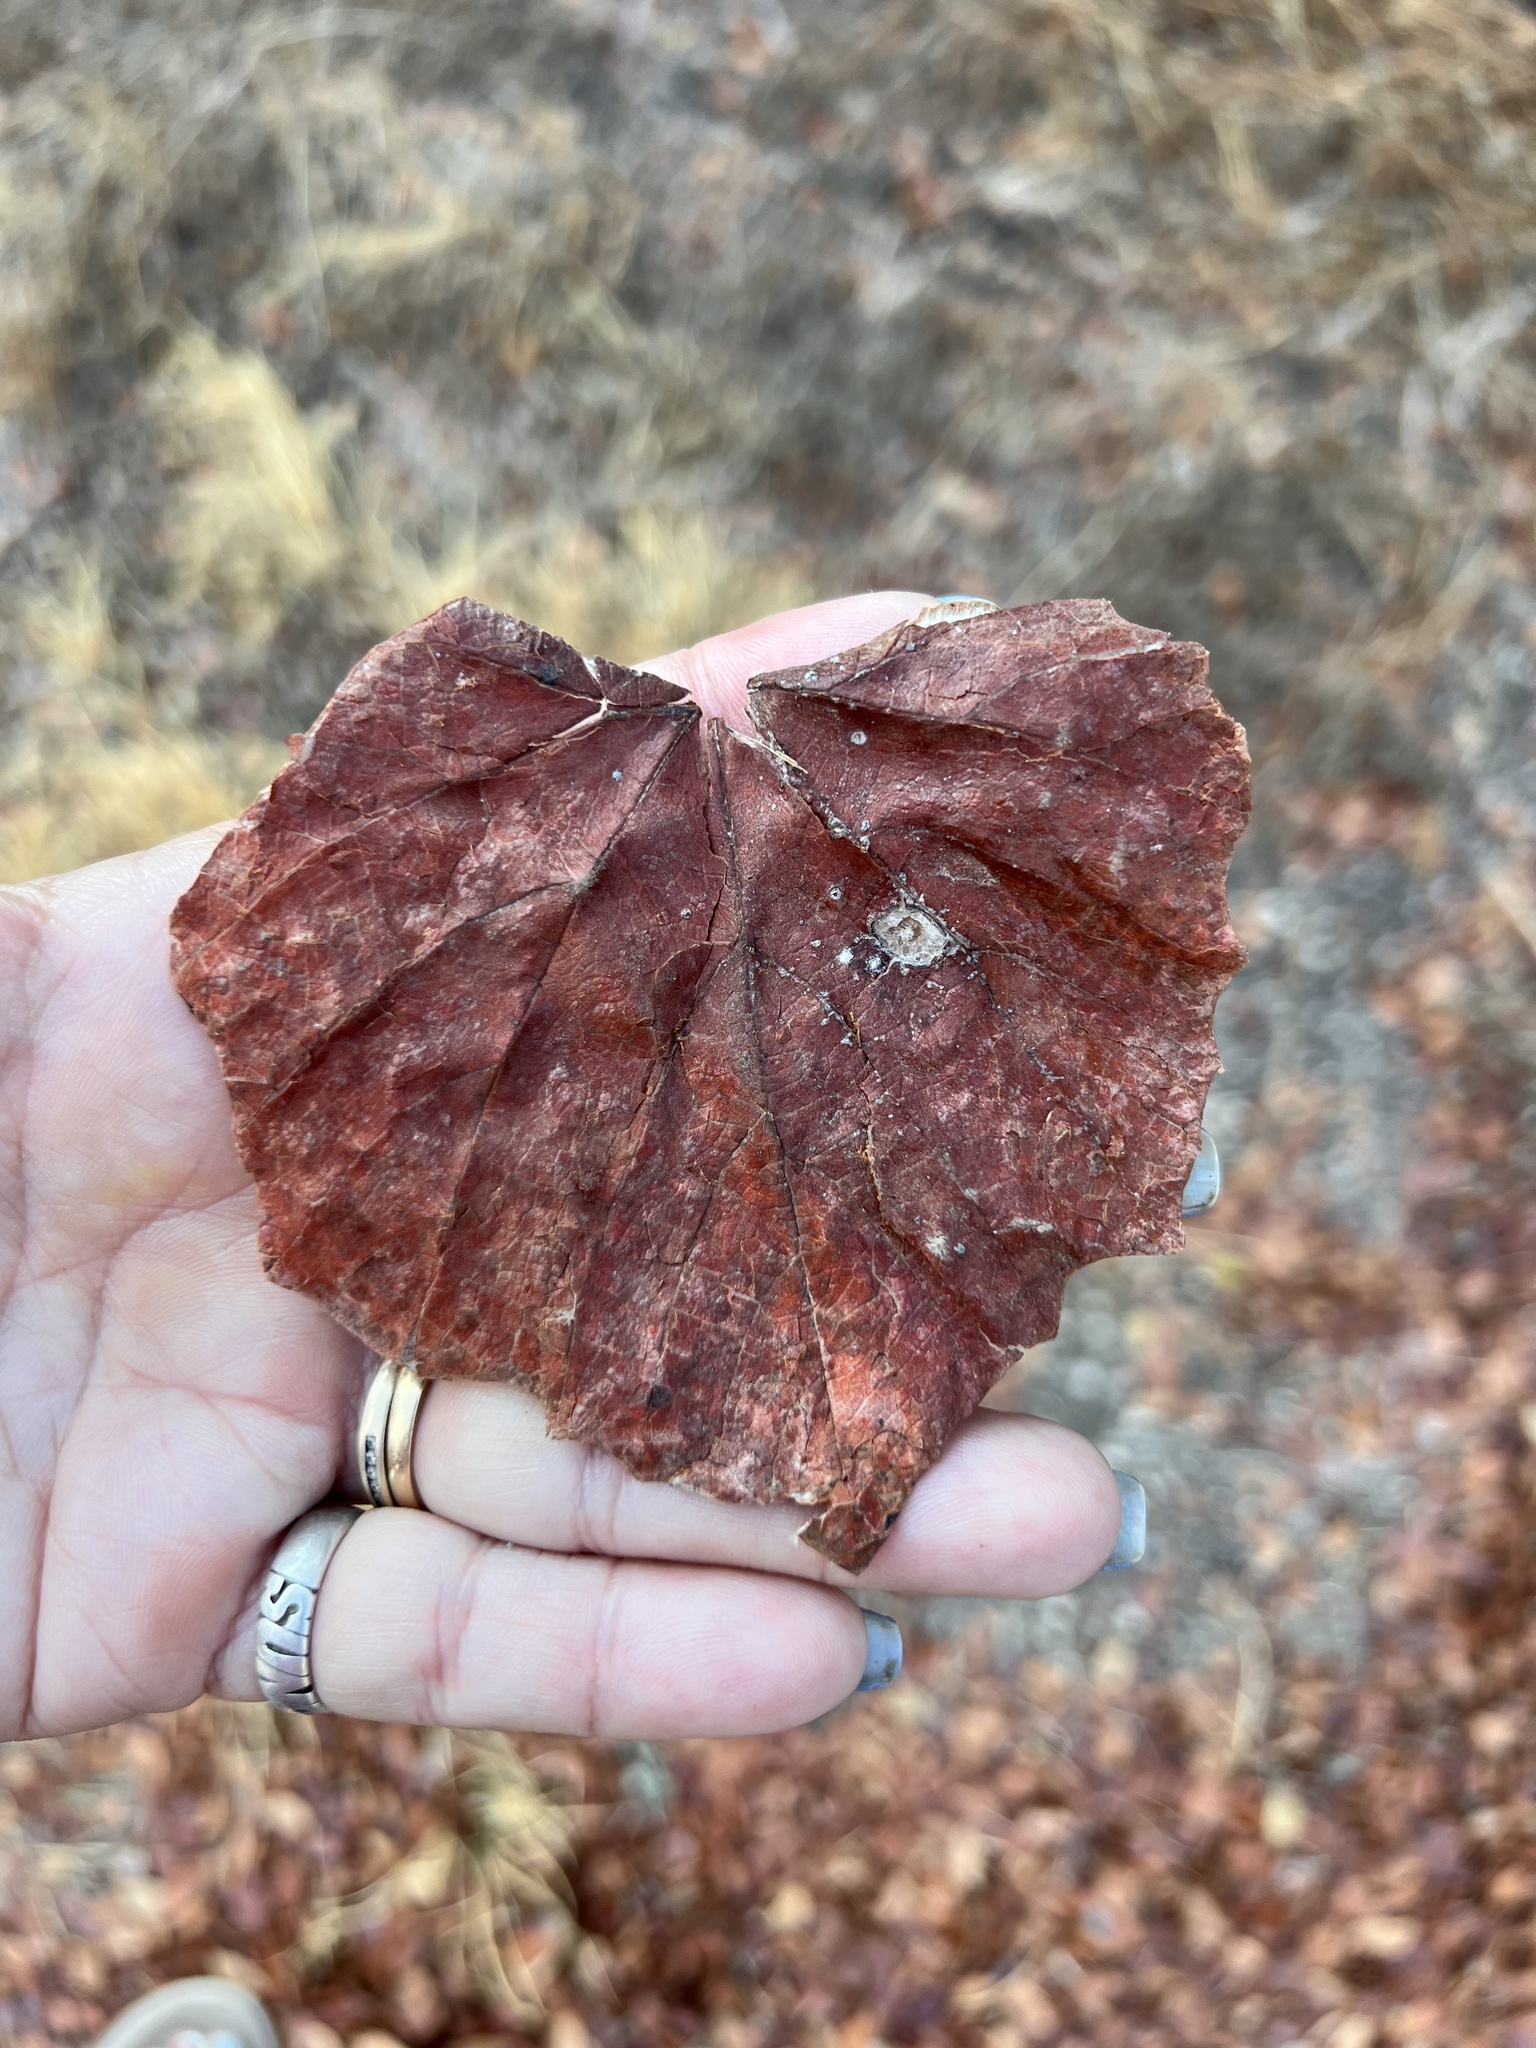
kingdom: Plantae
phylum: Tracheophyta
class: Magnoliopsida
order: Fabales
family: Fabaceae
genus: Cercis
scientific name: Cercis canadensis
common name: Eastern redbud
